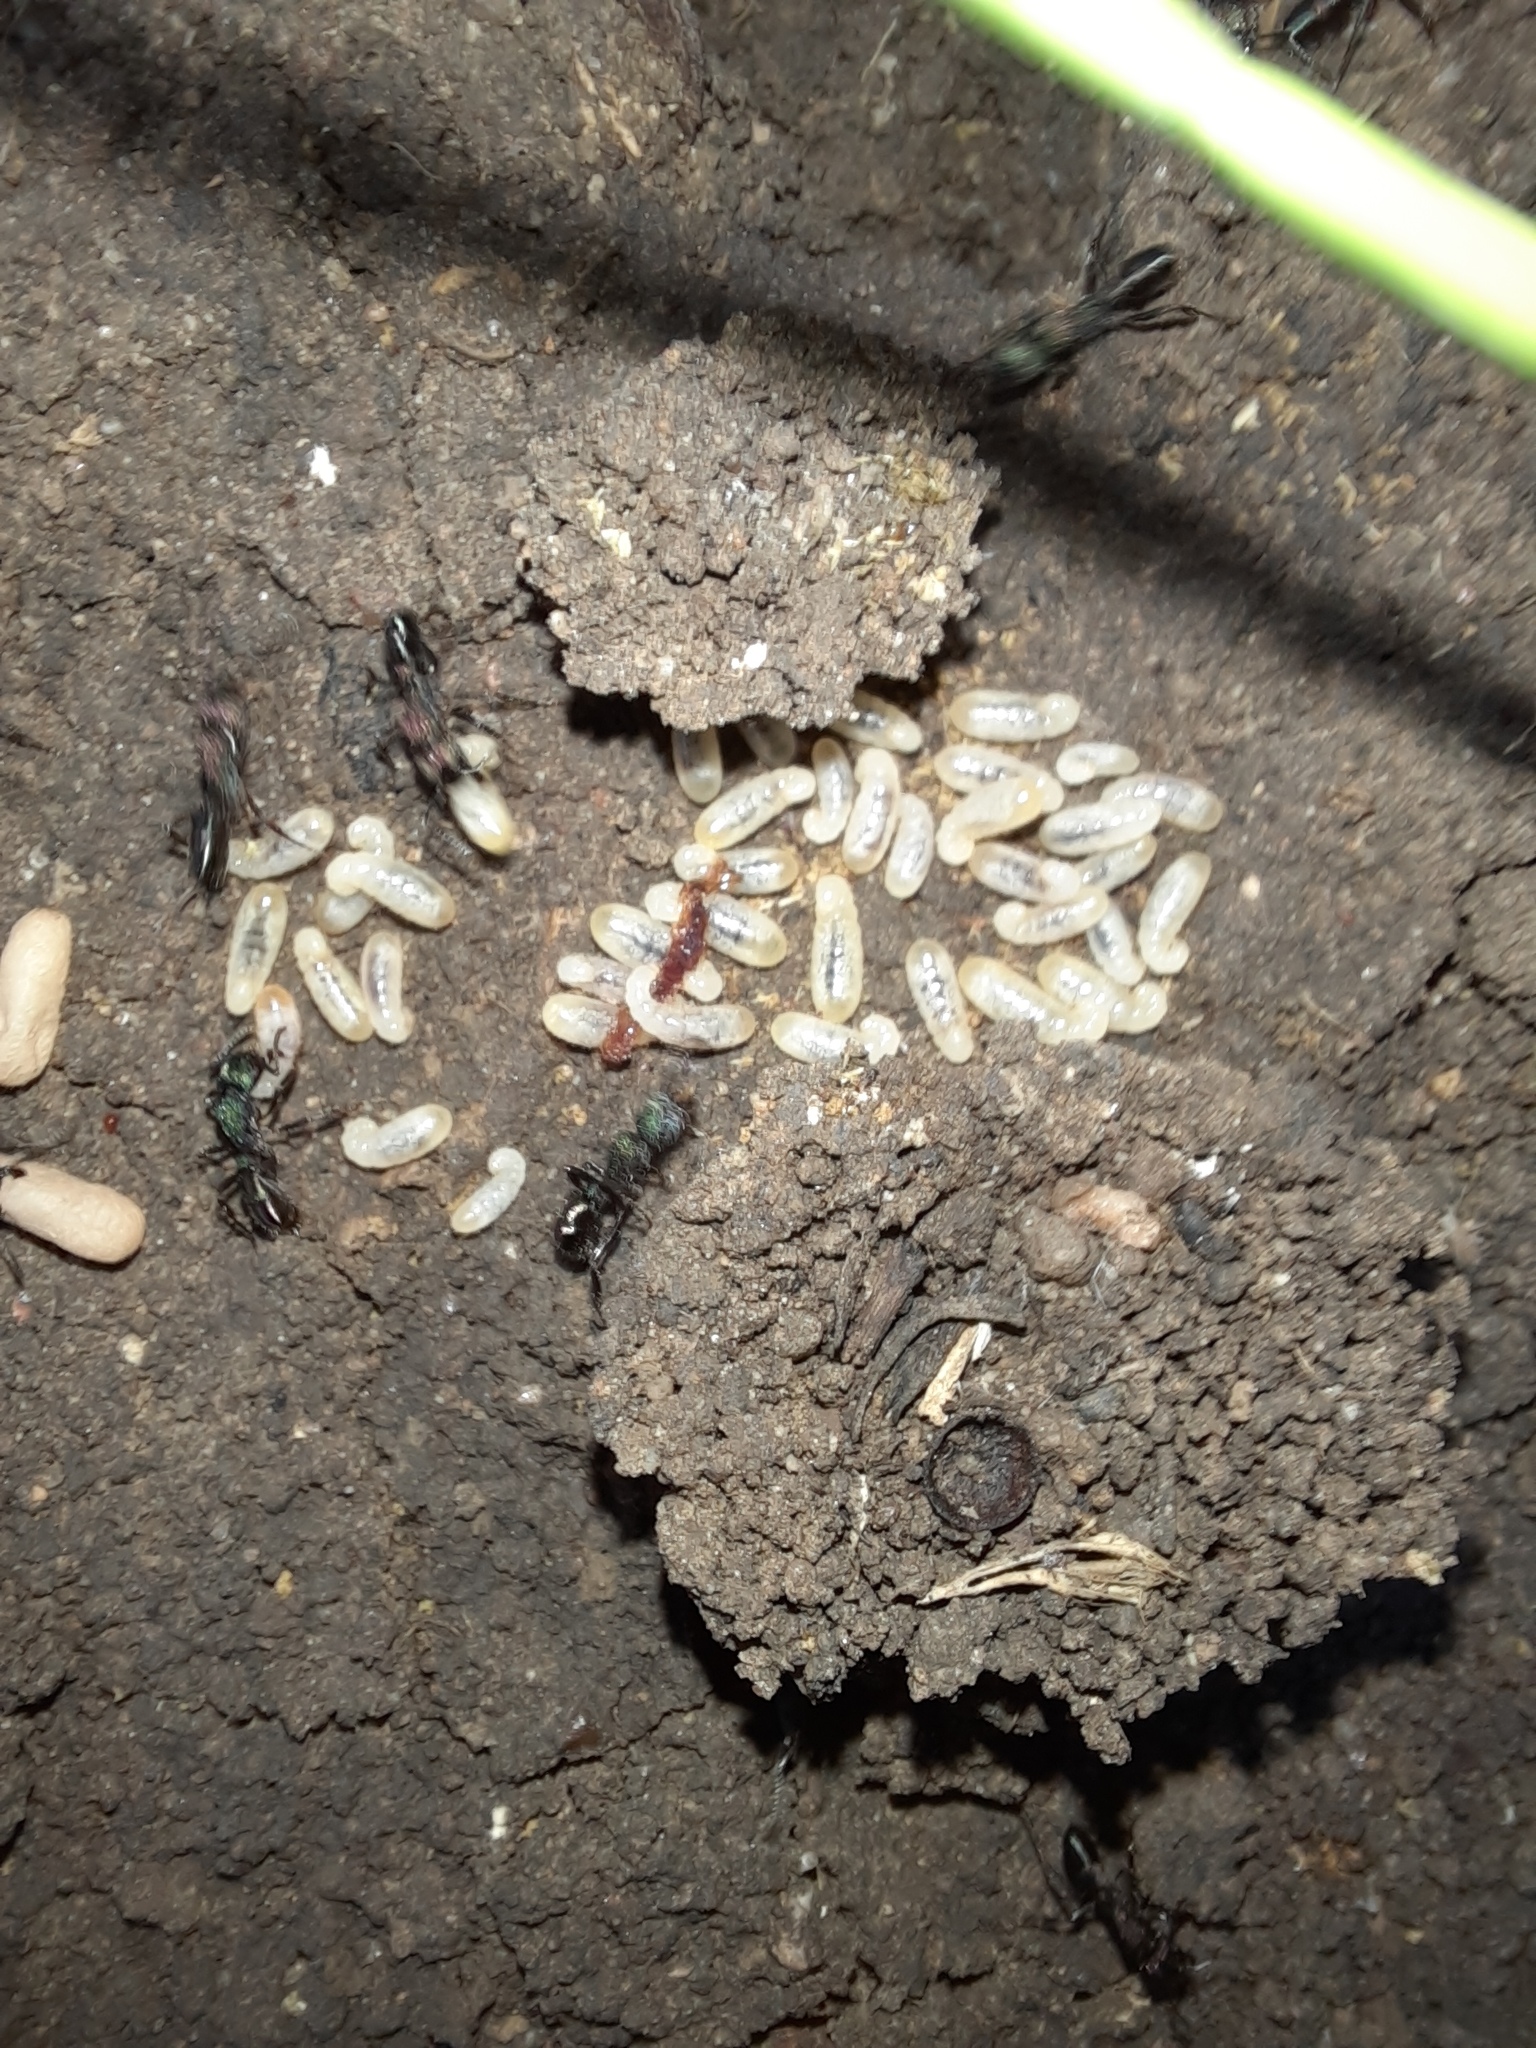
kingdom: Animalia
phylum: Arthropoda
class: Insecta
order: Hymenoptera
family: Formicidae
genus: Rhytidoponera
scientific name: Rhytidoponera metallica
